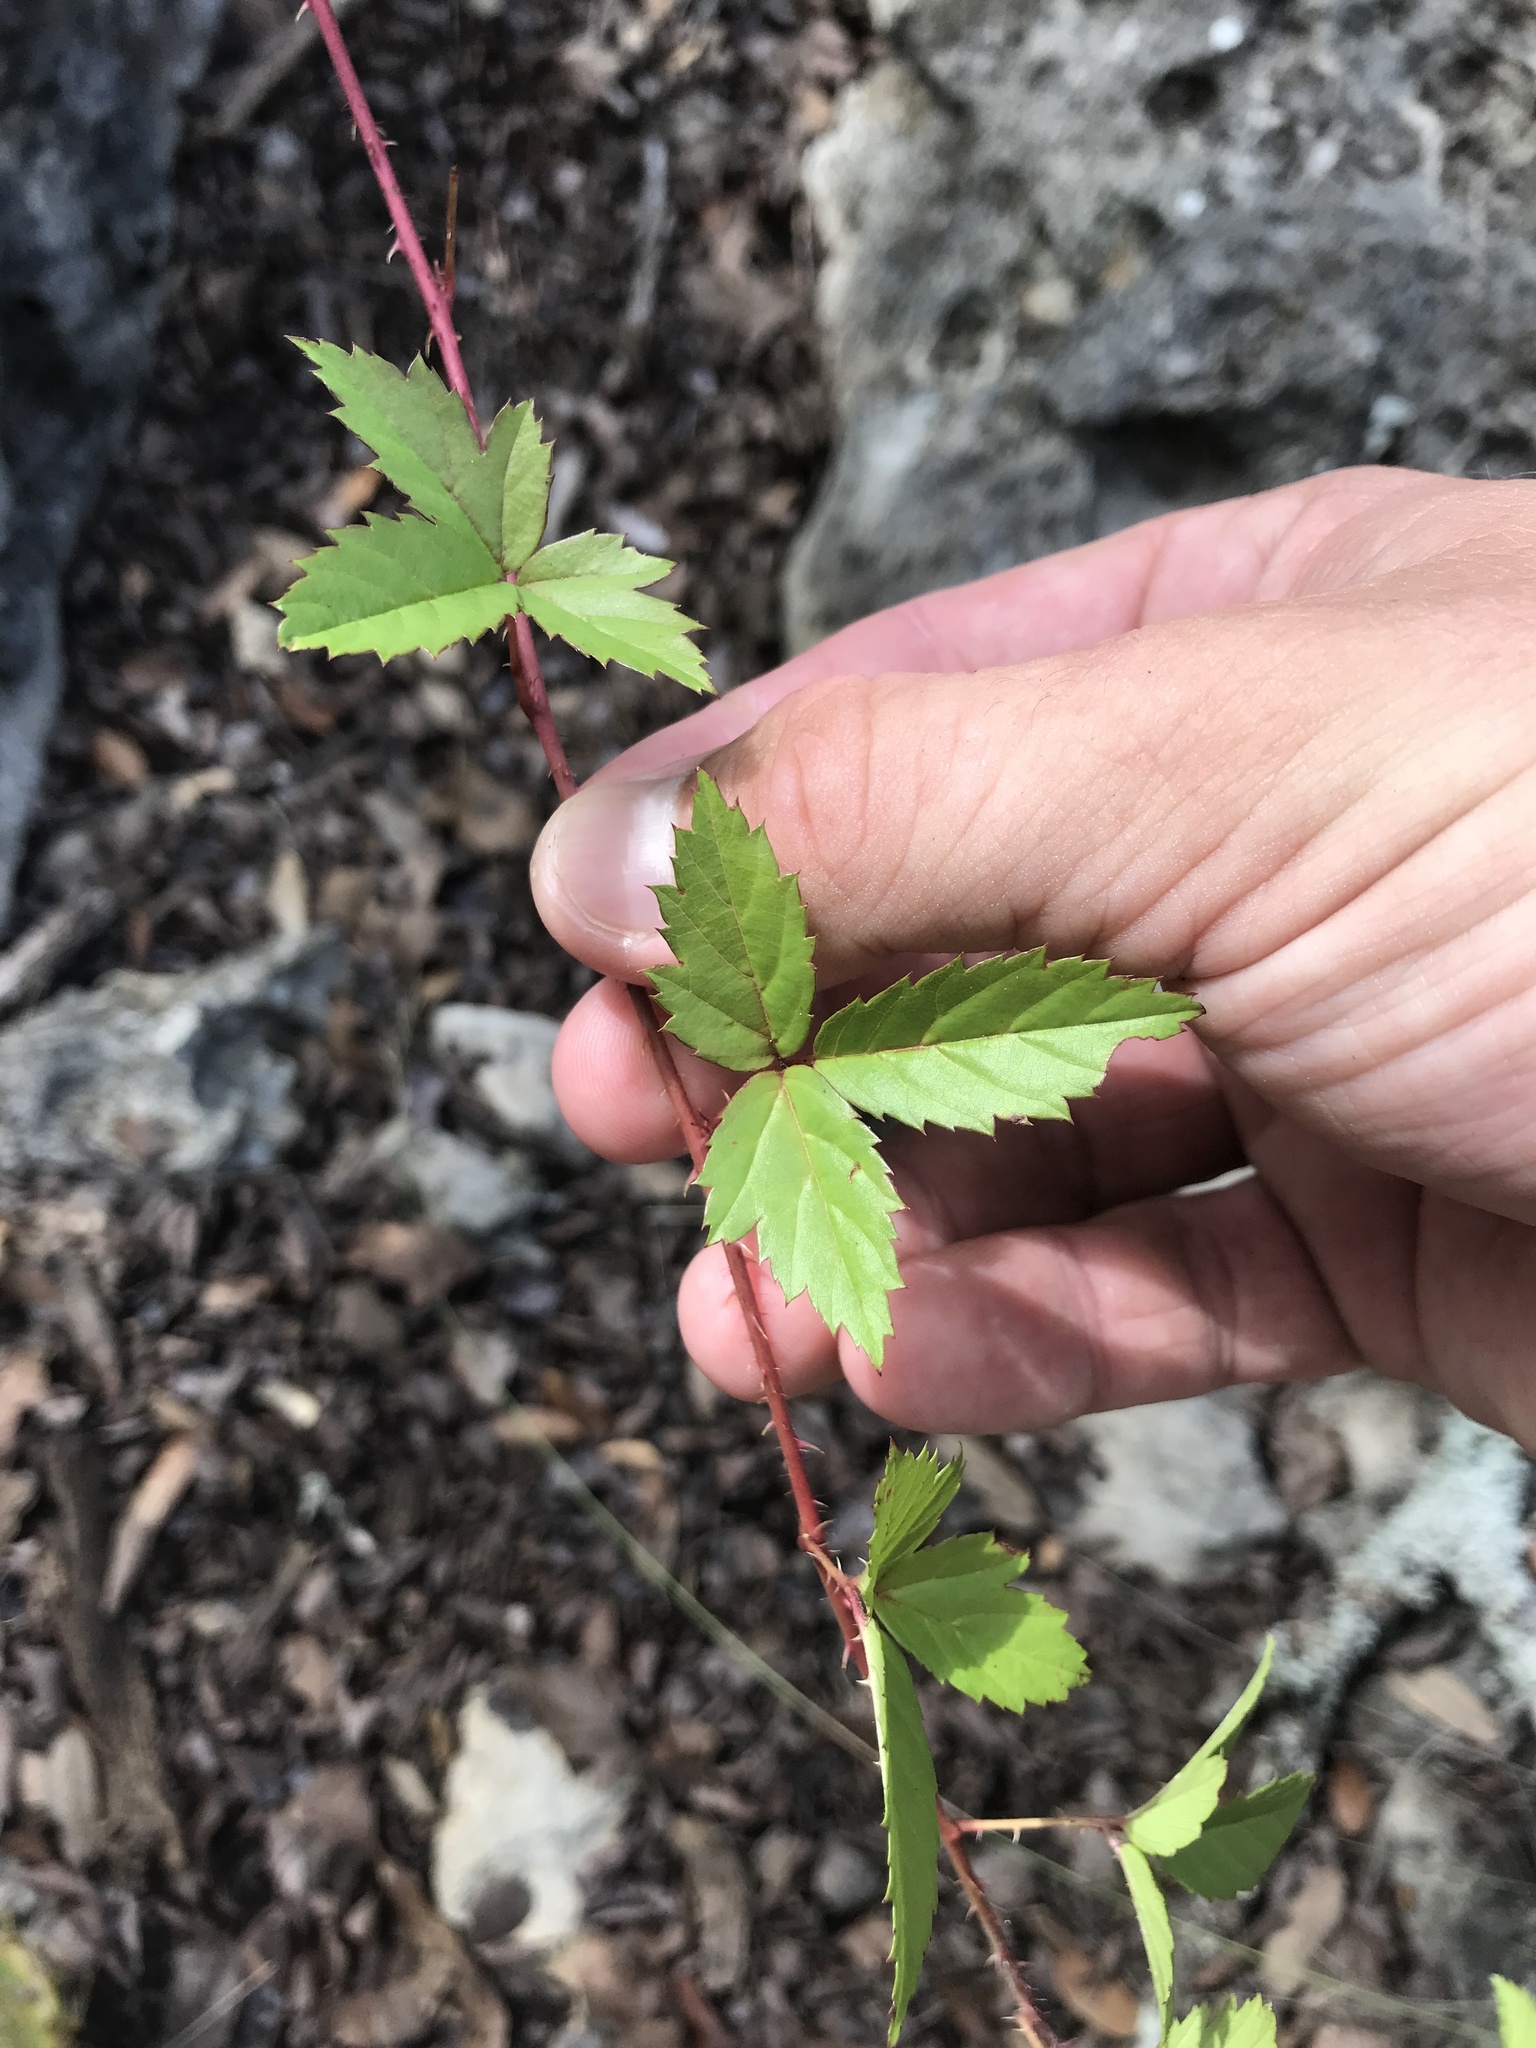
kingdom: Plantae
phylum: Tracheophyta
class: Magnoliopsida
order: Rosales
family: Rosaceae
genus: Rubus
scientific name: Rubus trivialis
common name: Southern dewberry
